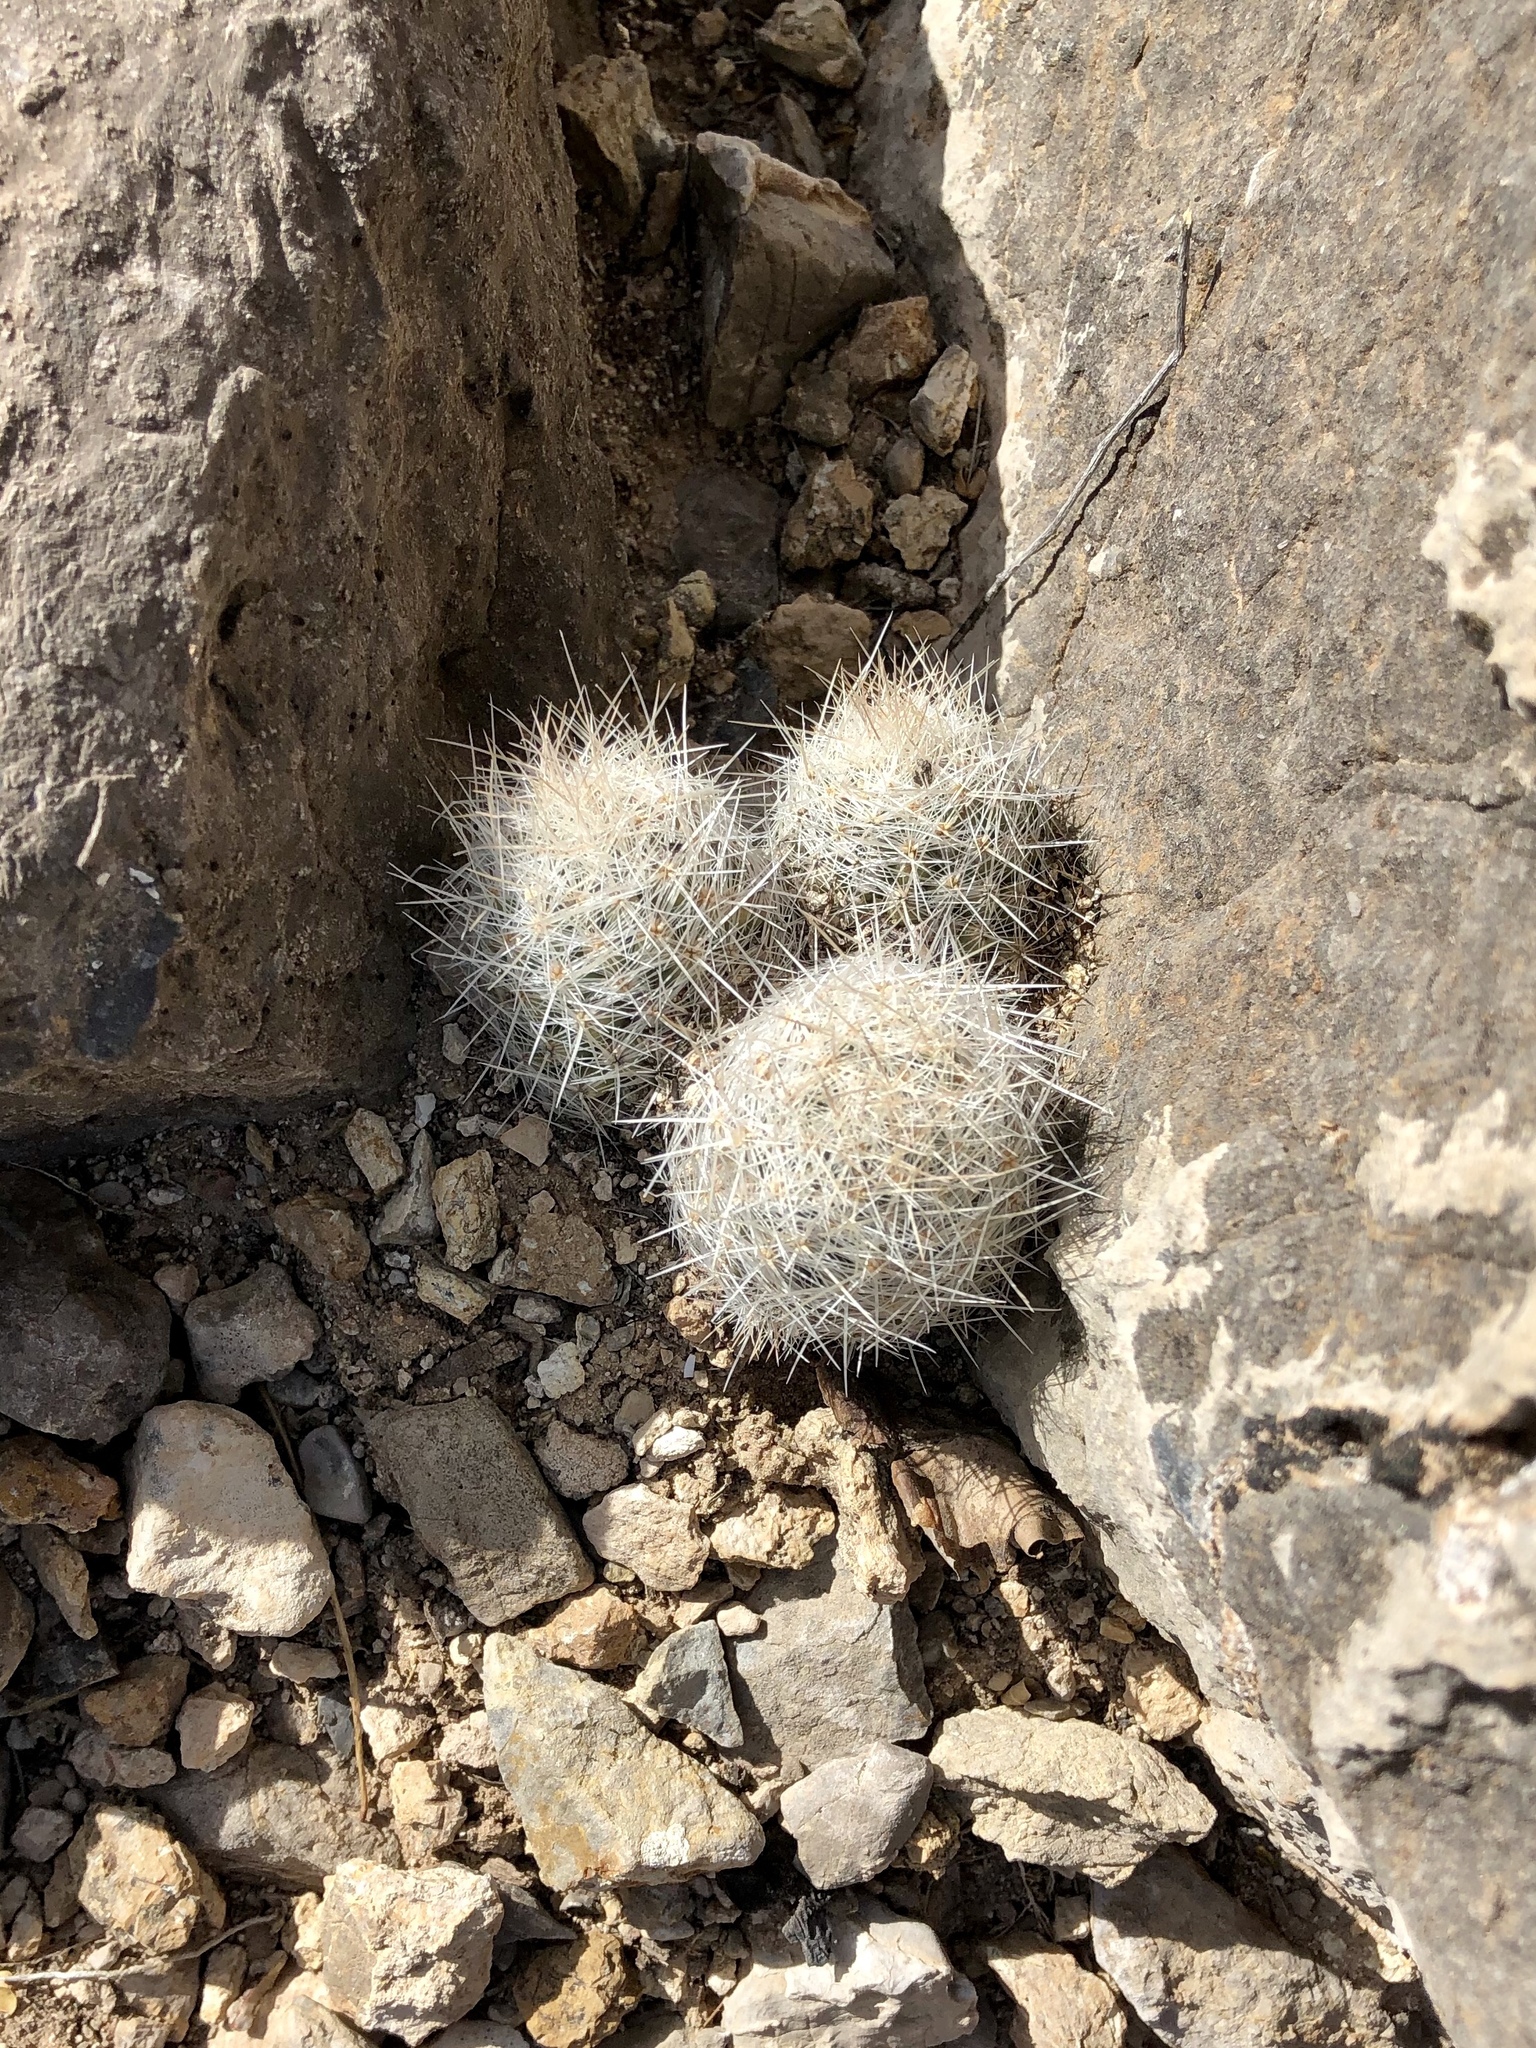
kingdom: Plantae
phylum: Tracheophyta
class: Magnoliopsida
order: Caryophyllales
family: Cactaceae
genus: Pelecyphora
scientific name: Pelecyphora sneedii
